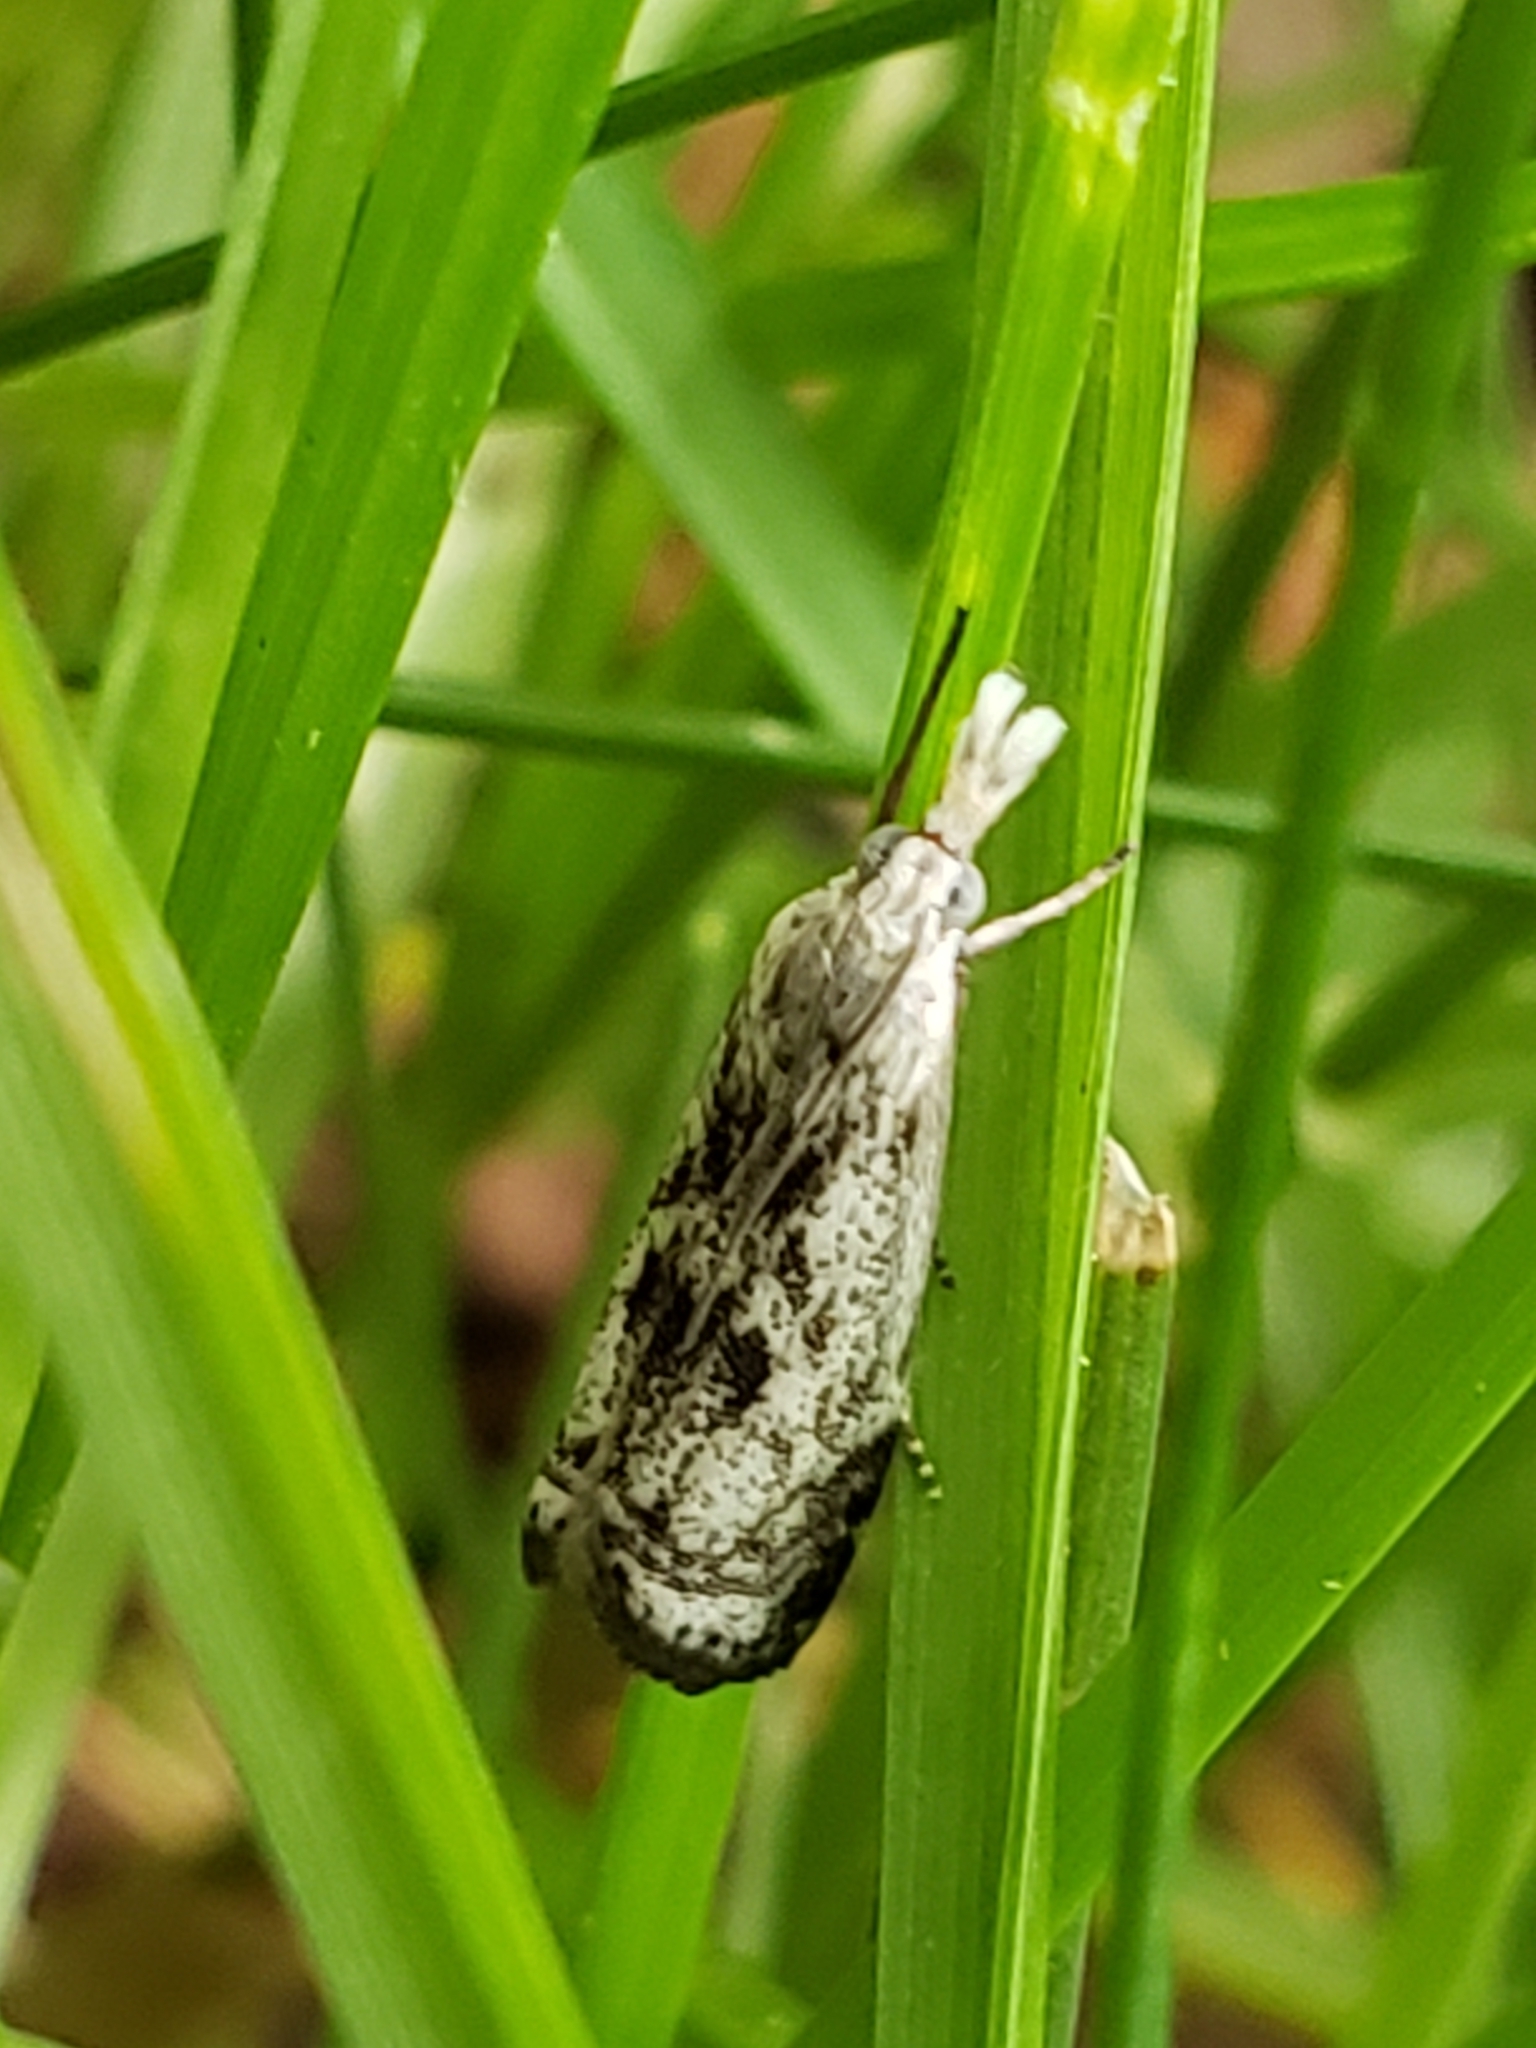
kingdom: Animalia
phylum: Arthropoda
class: Insecta
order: Lepidoptera
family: Crambidae
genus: Microcrambus
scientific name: Microcrambus elegans
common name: Elegant grass-veneer
